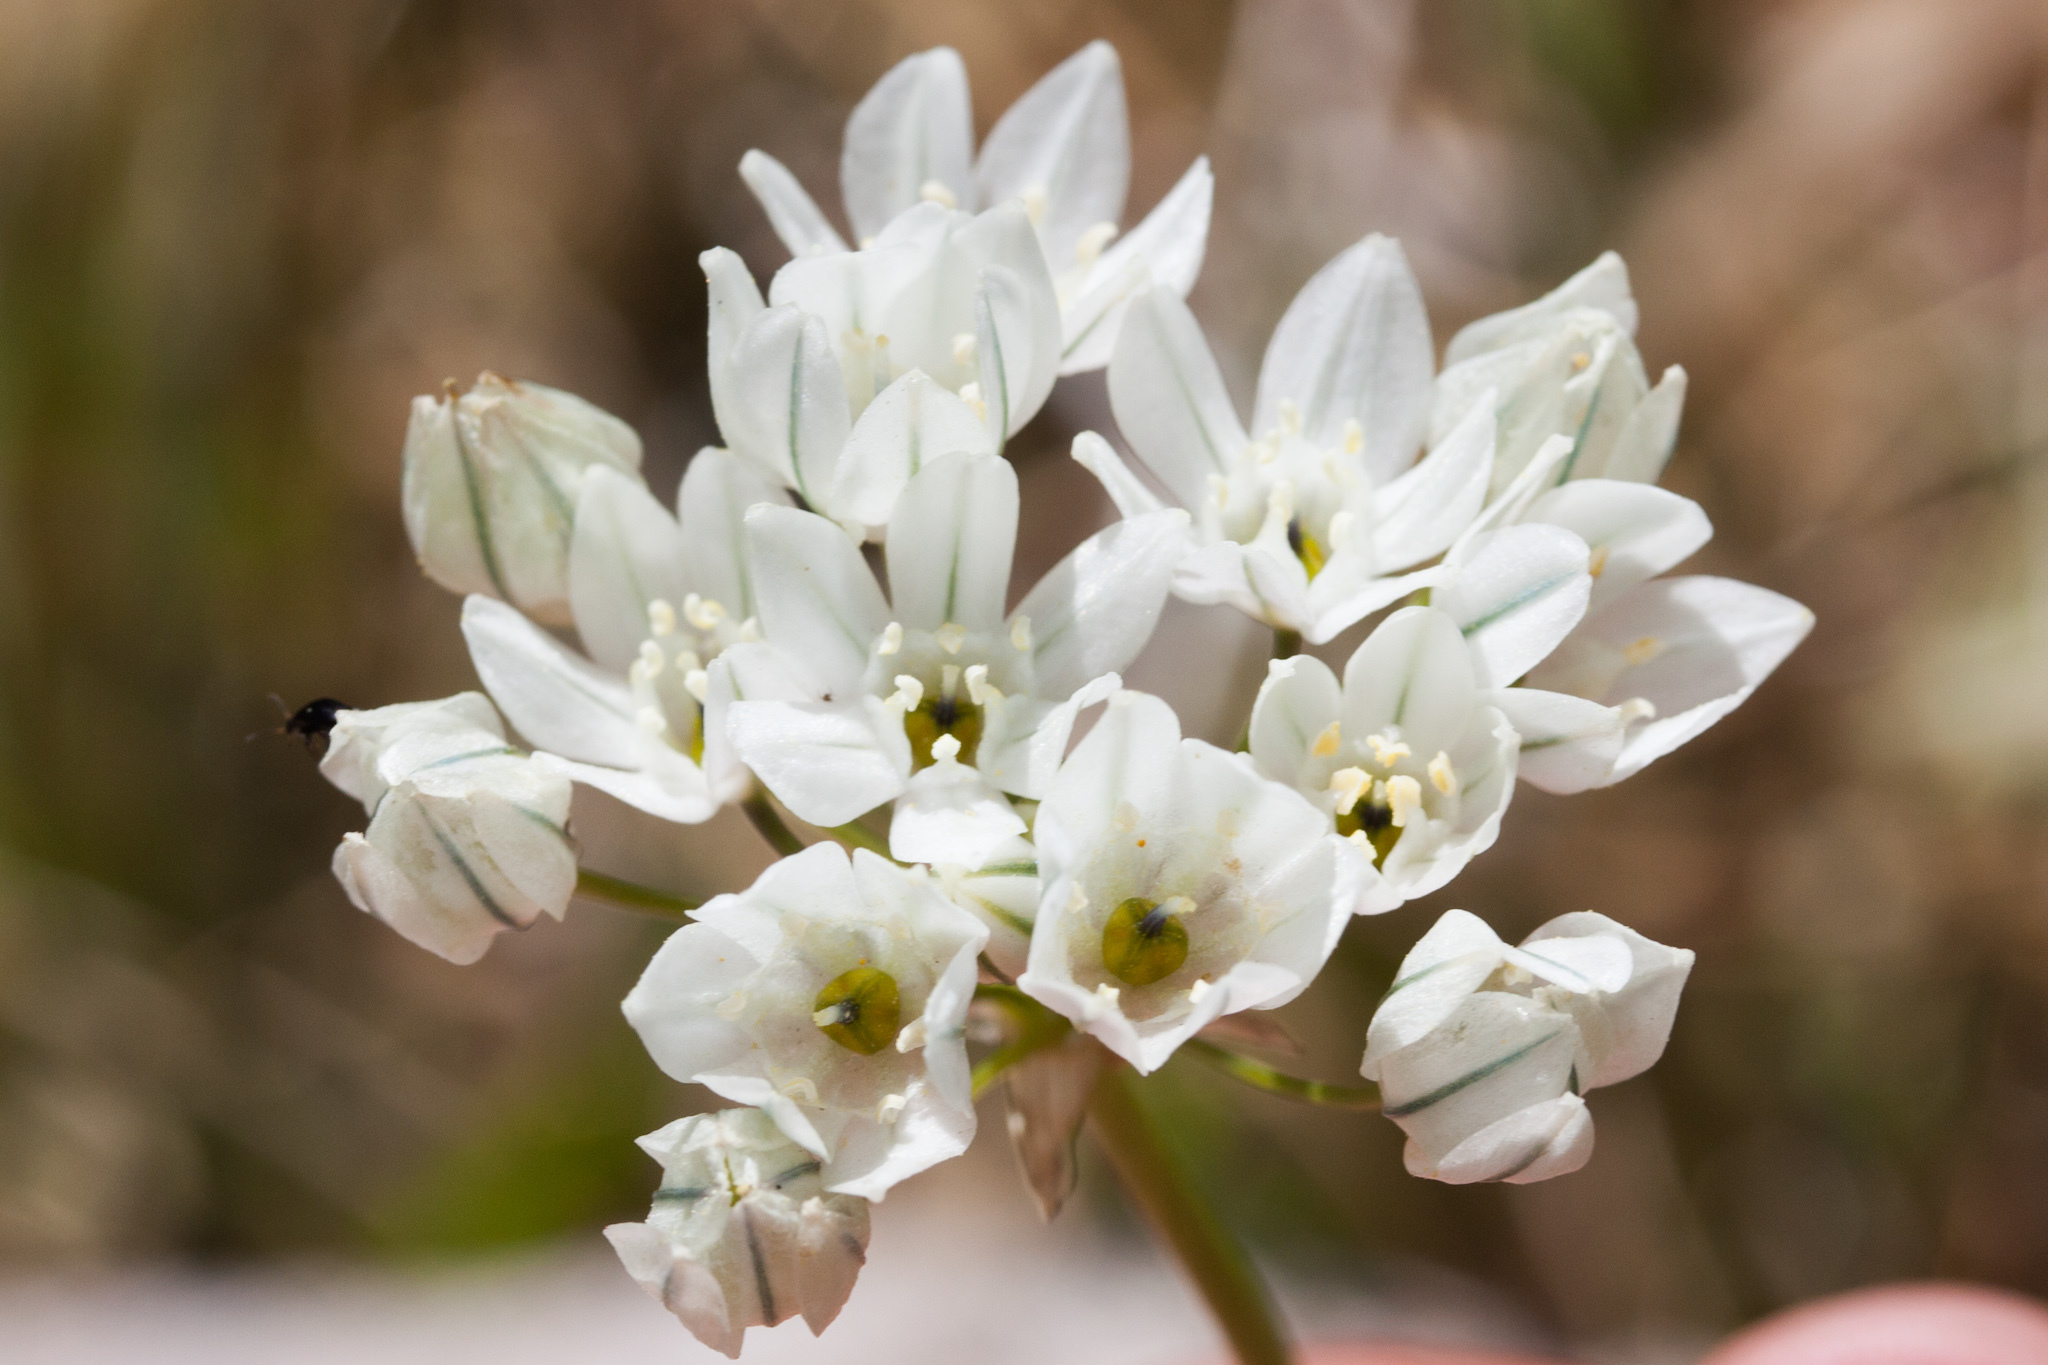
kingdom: Plantae
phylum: Tracheophyta
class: Liliopsida
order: Asparagales
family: Asparagaceae
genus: Triteleia
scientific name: Triteleia hyacinthina
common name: White brodiaea
